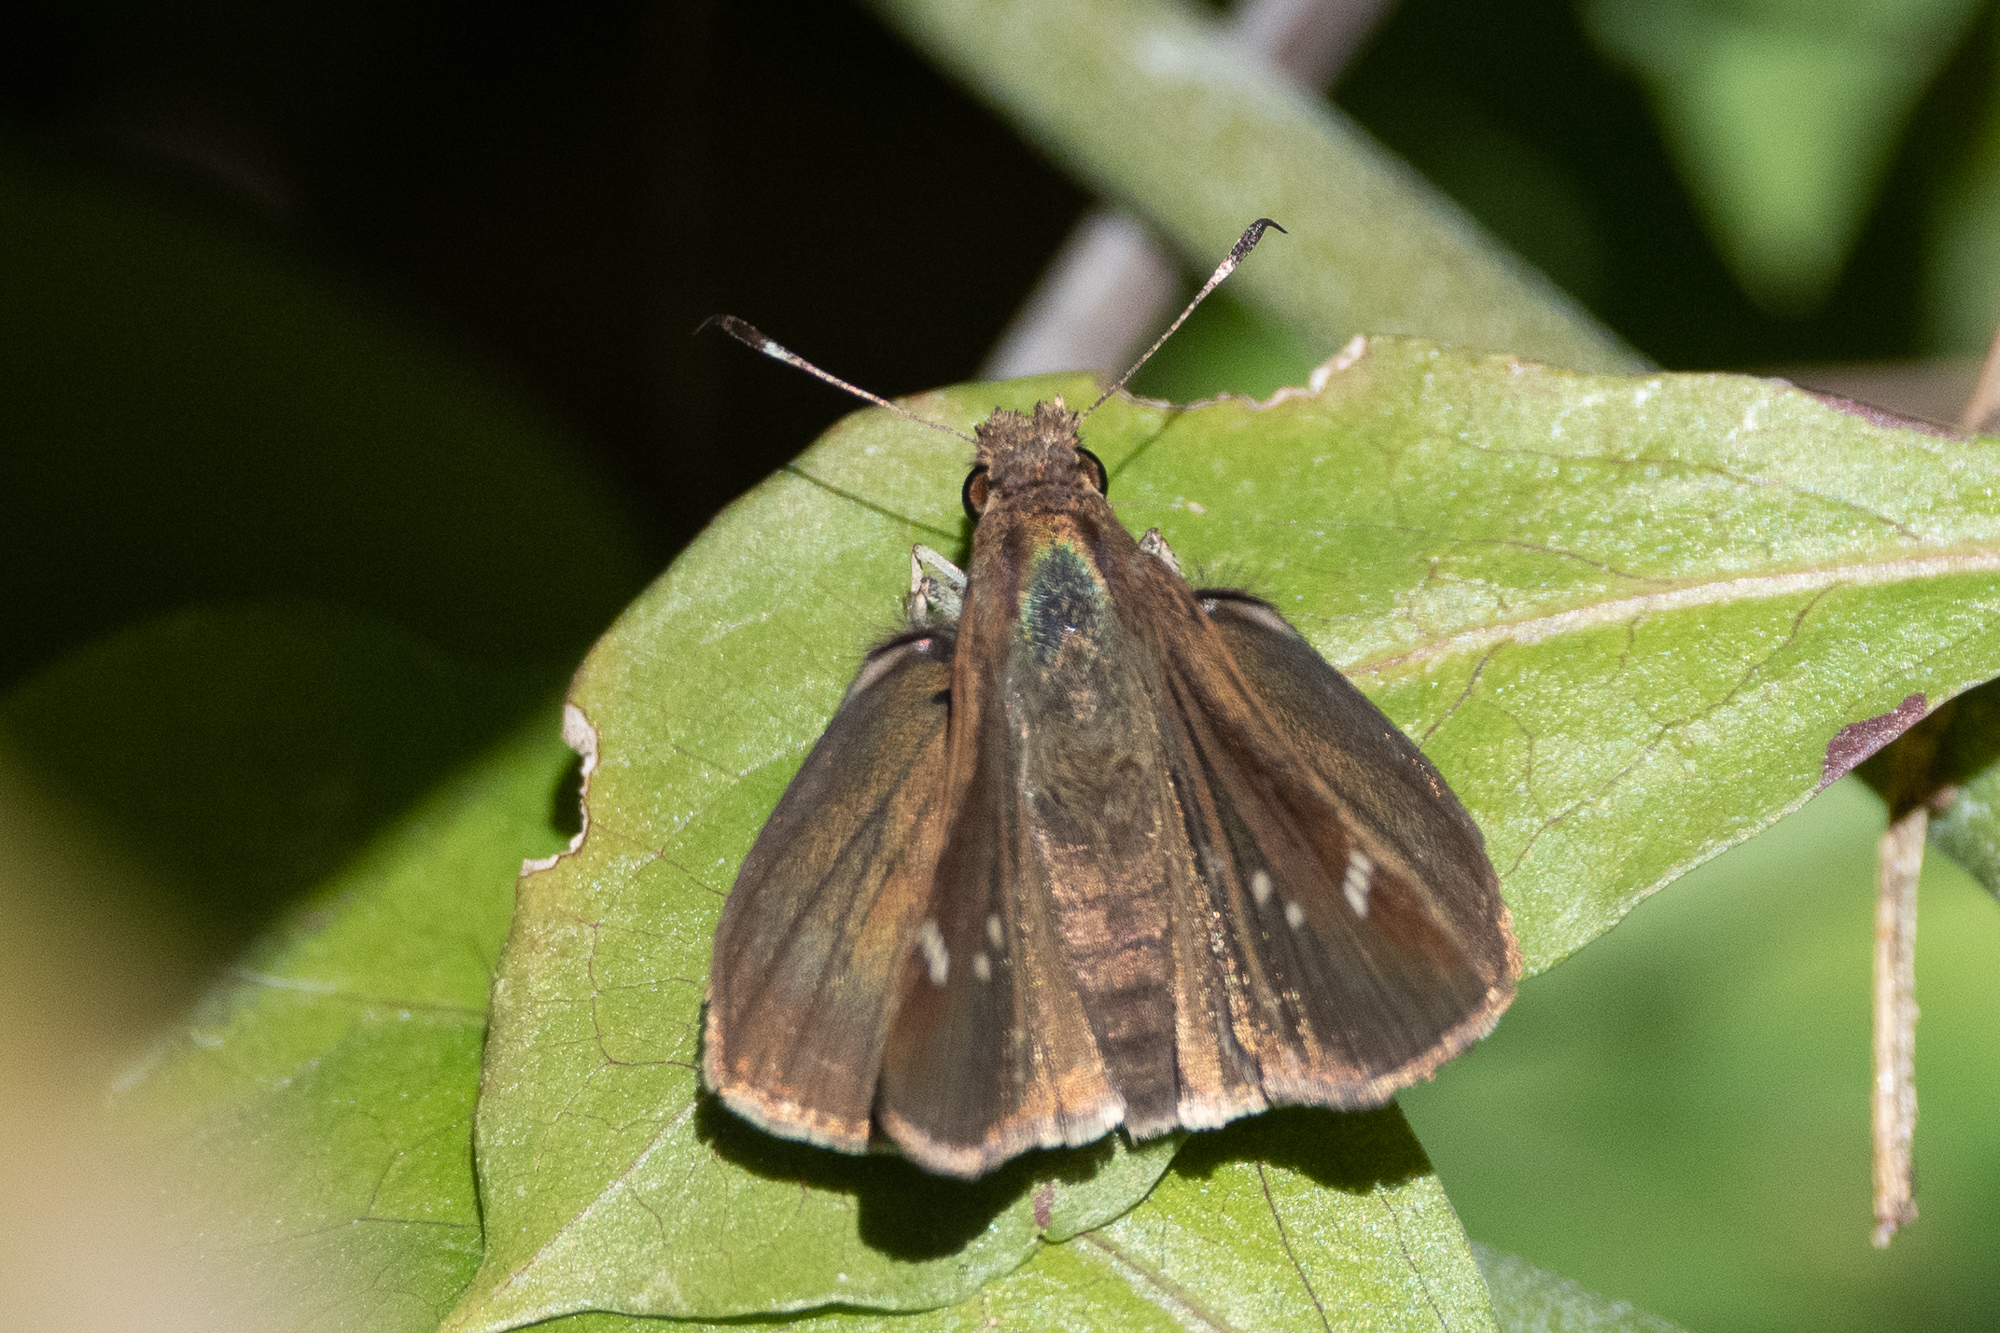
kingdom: Animalia
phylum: Arthropoda
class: Insecta
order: Lepidoptera
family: Hesperiidae
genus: Lerema
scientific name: Lerema accius
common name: Clouded skipper
